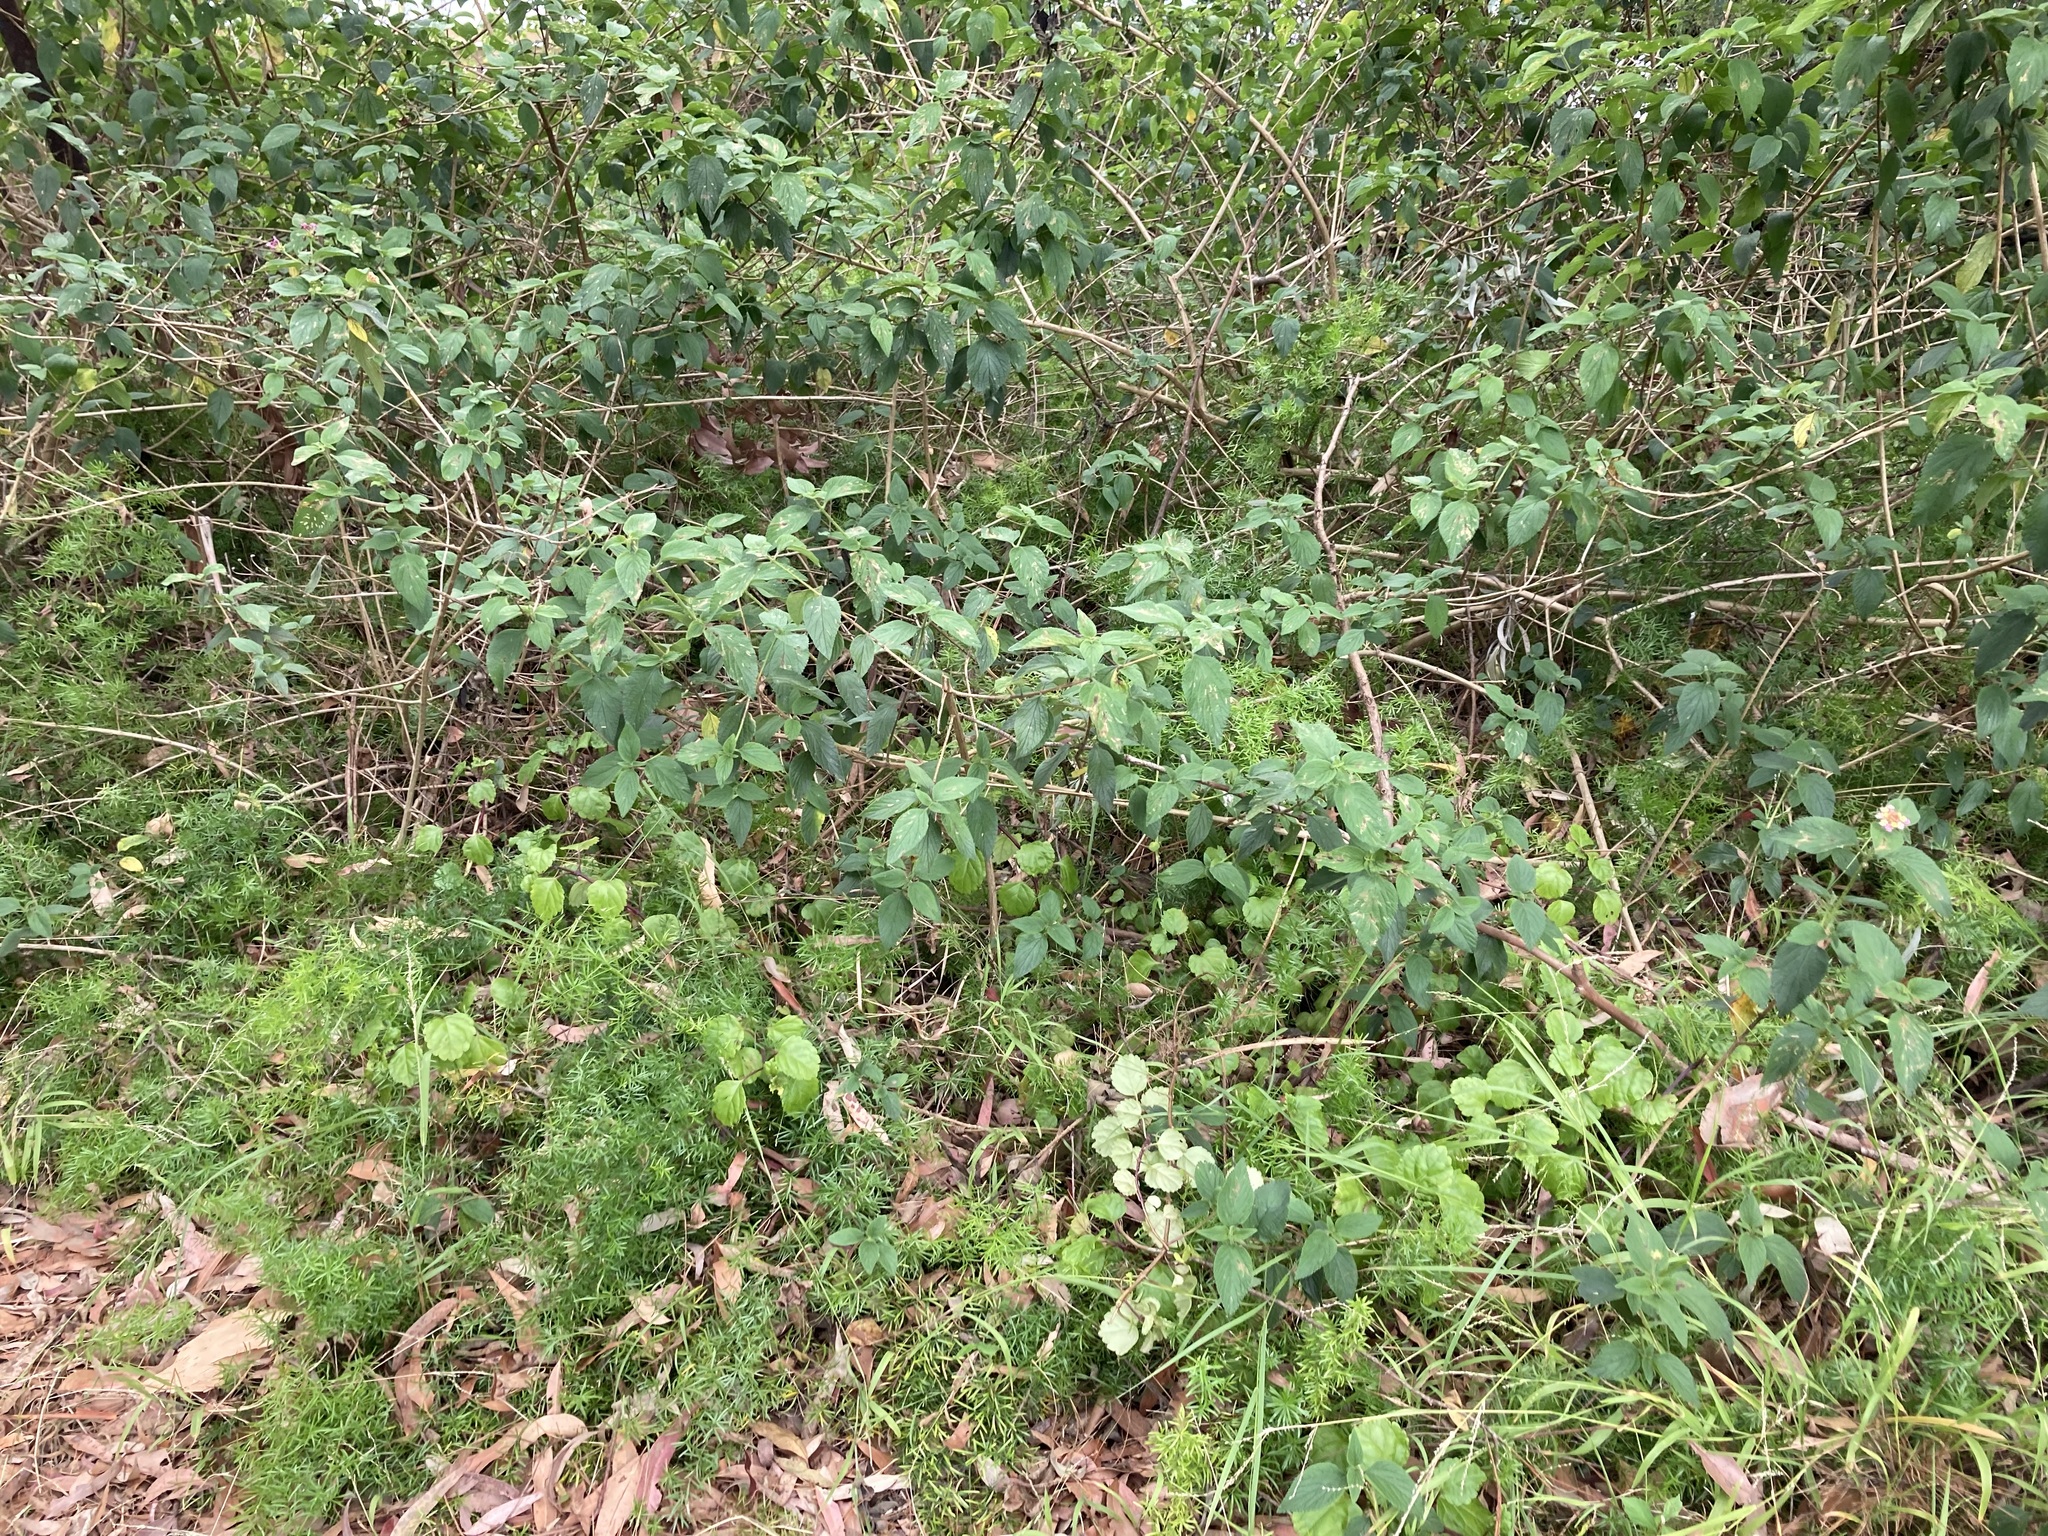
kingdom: Plantae
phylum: Tracheophyta
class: Magnoliopsida
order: Lamiales
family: Lamiaceae
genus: Plectranthus
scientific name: Plectranthus verticillatus
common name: Whorled plectranthus
